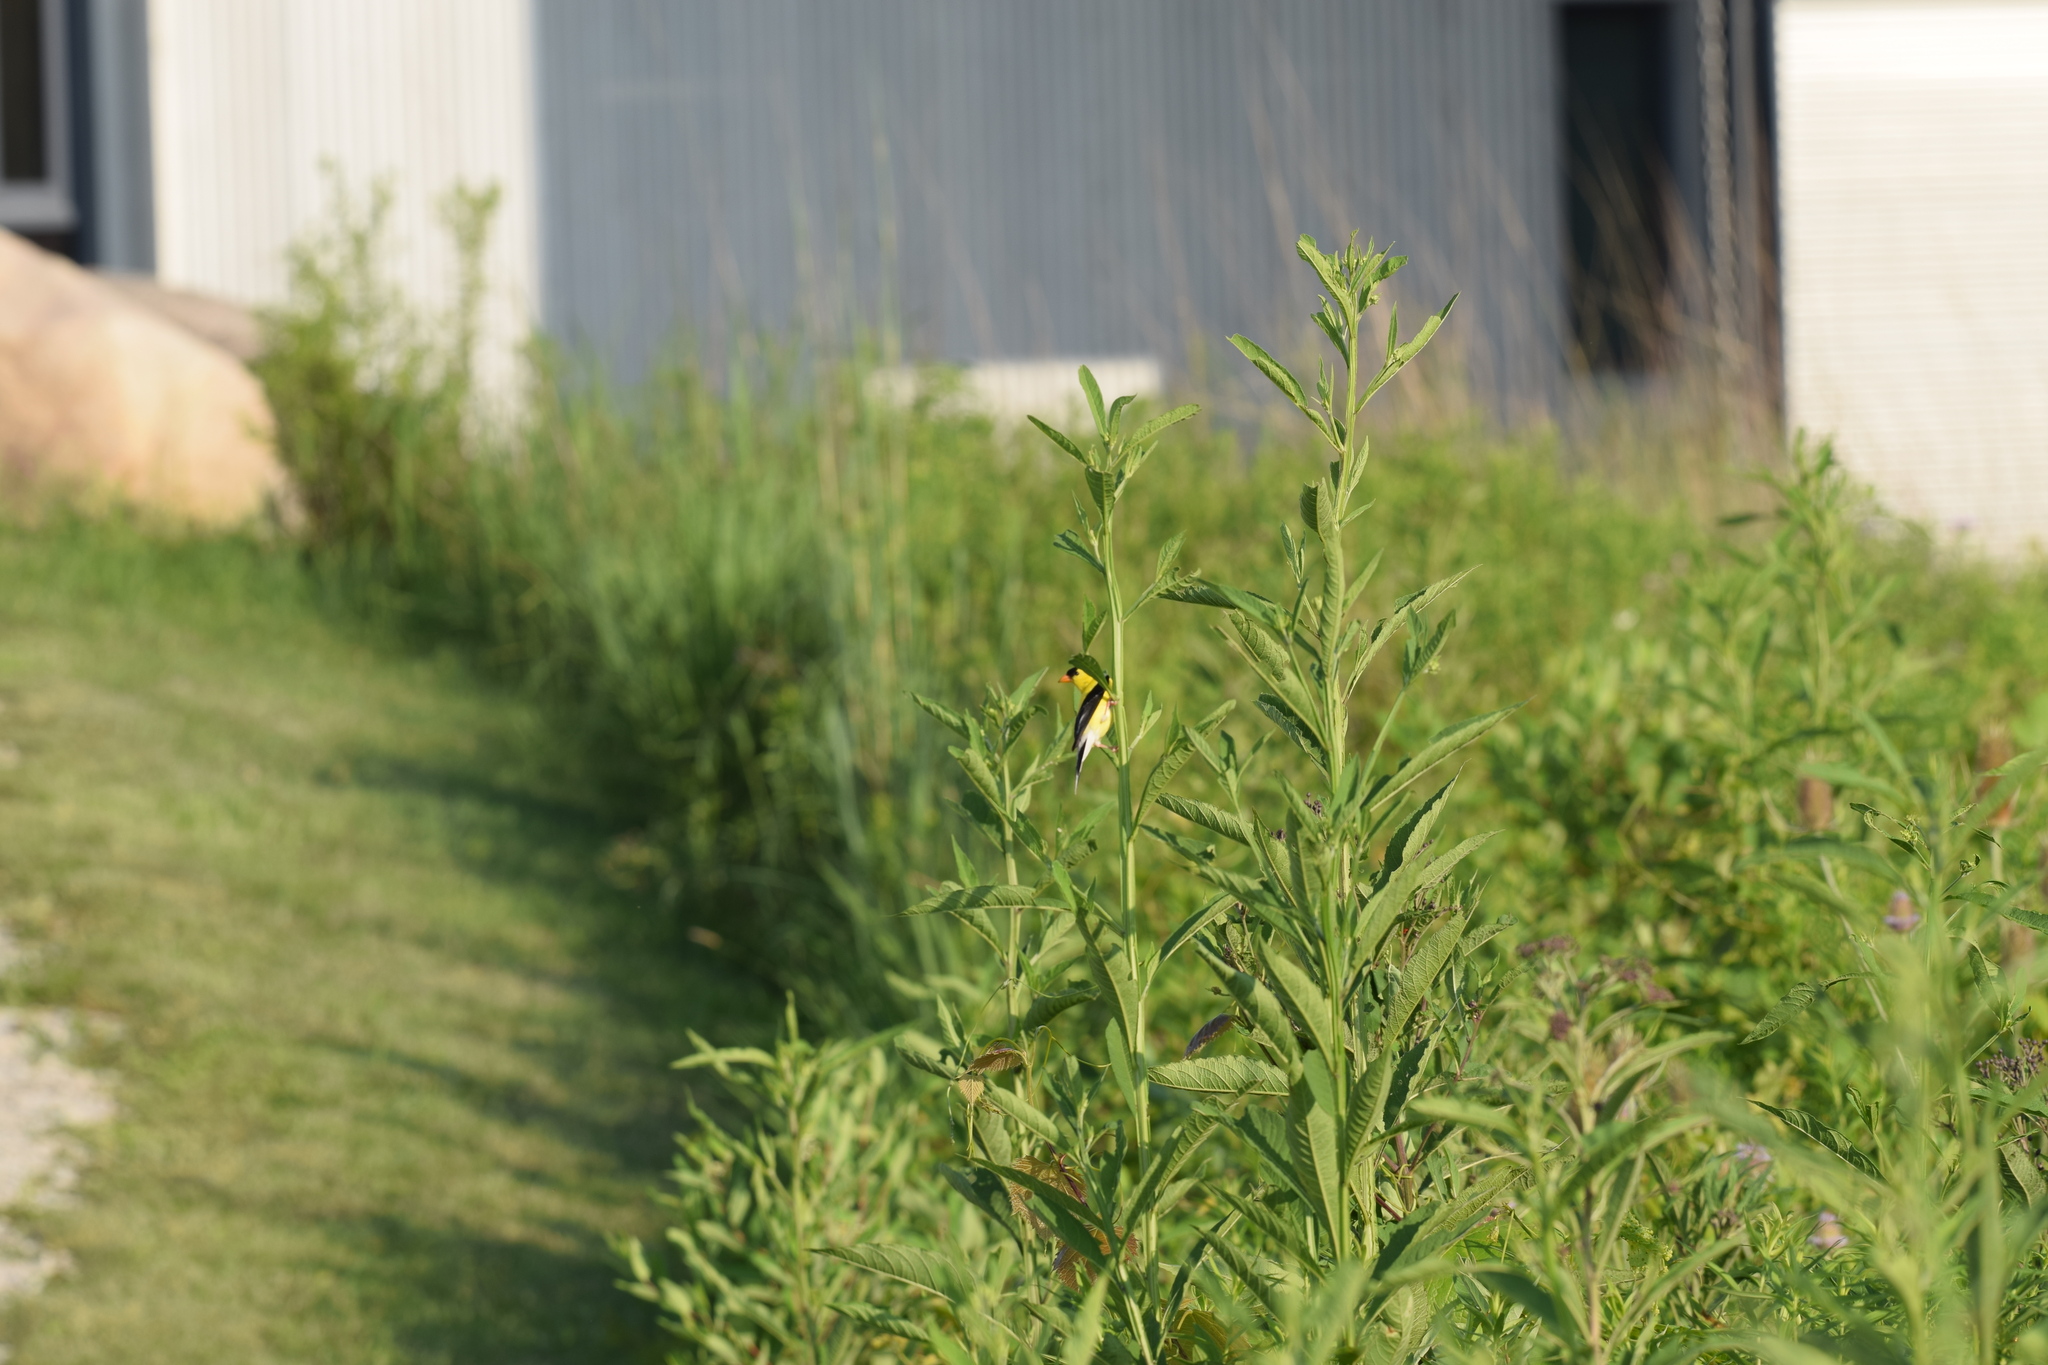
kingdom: Animalia
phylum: Chordata
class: Aves
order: Passeriformes
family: Fringillidae
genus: Spinus
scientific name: Spinus tristis
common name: American goldfinch
